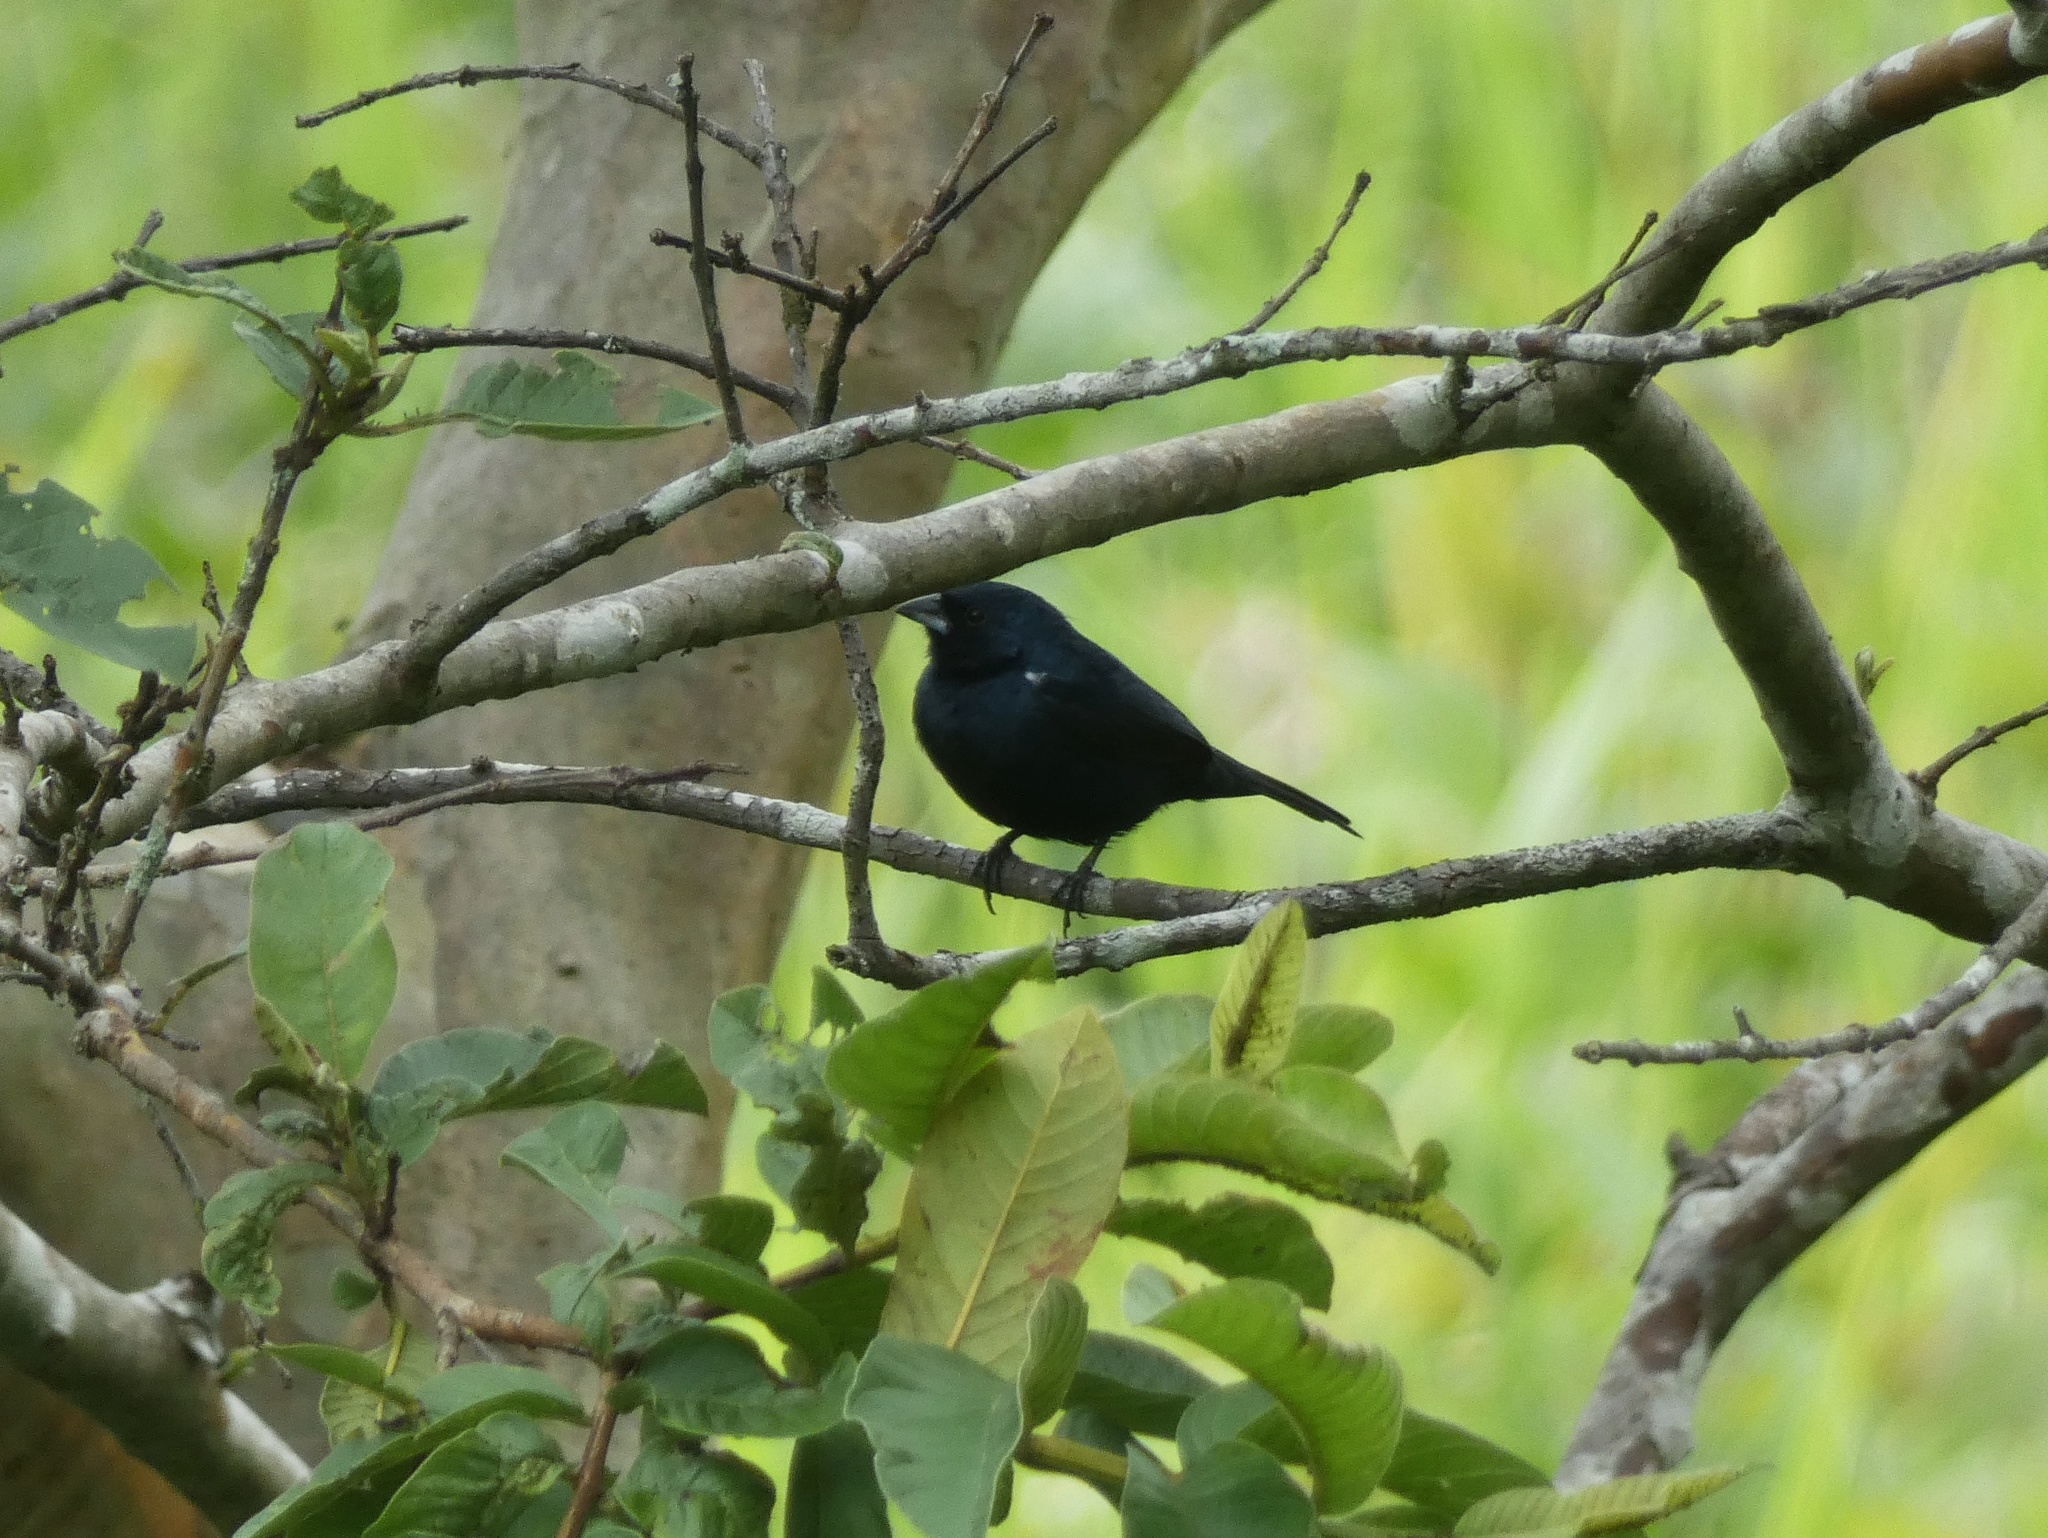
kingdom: Animalia
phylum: Chordata
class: Aves
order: Passeriformes
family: Thraupidae
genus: Volatinia
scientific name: Volatinia jacarina
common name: Blue-black grassquit
